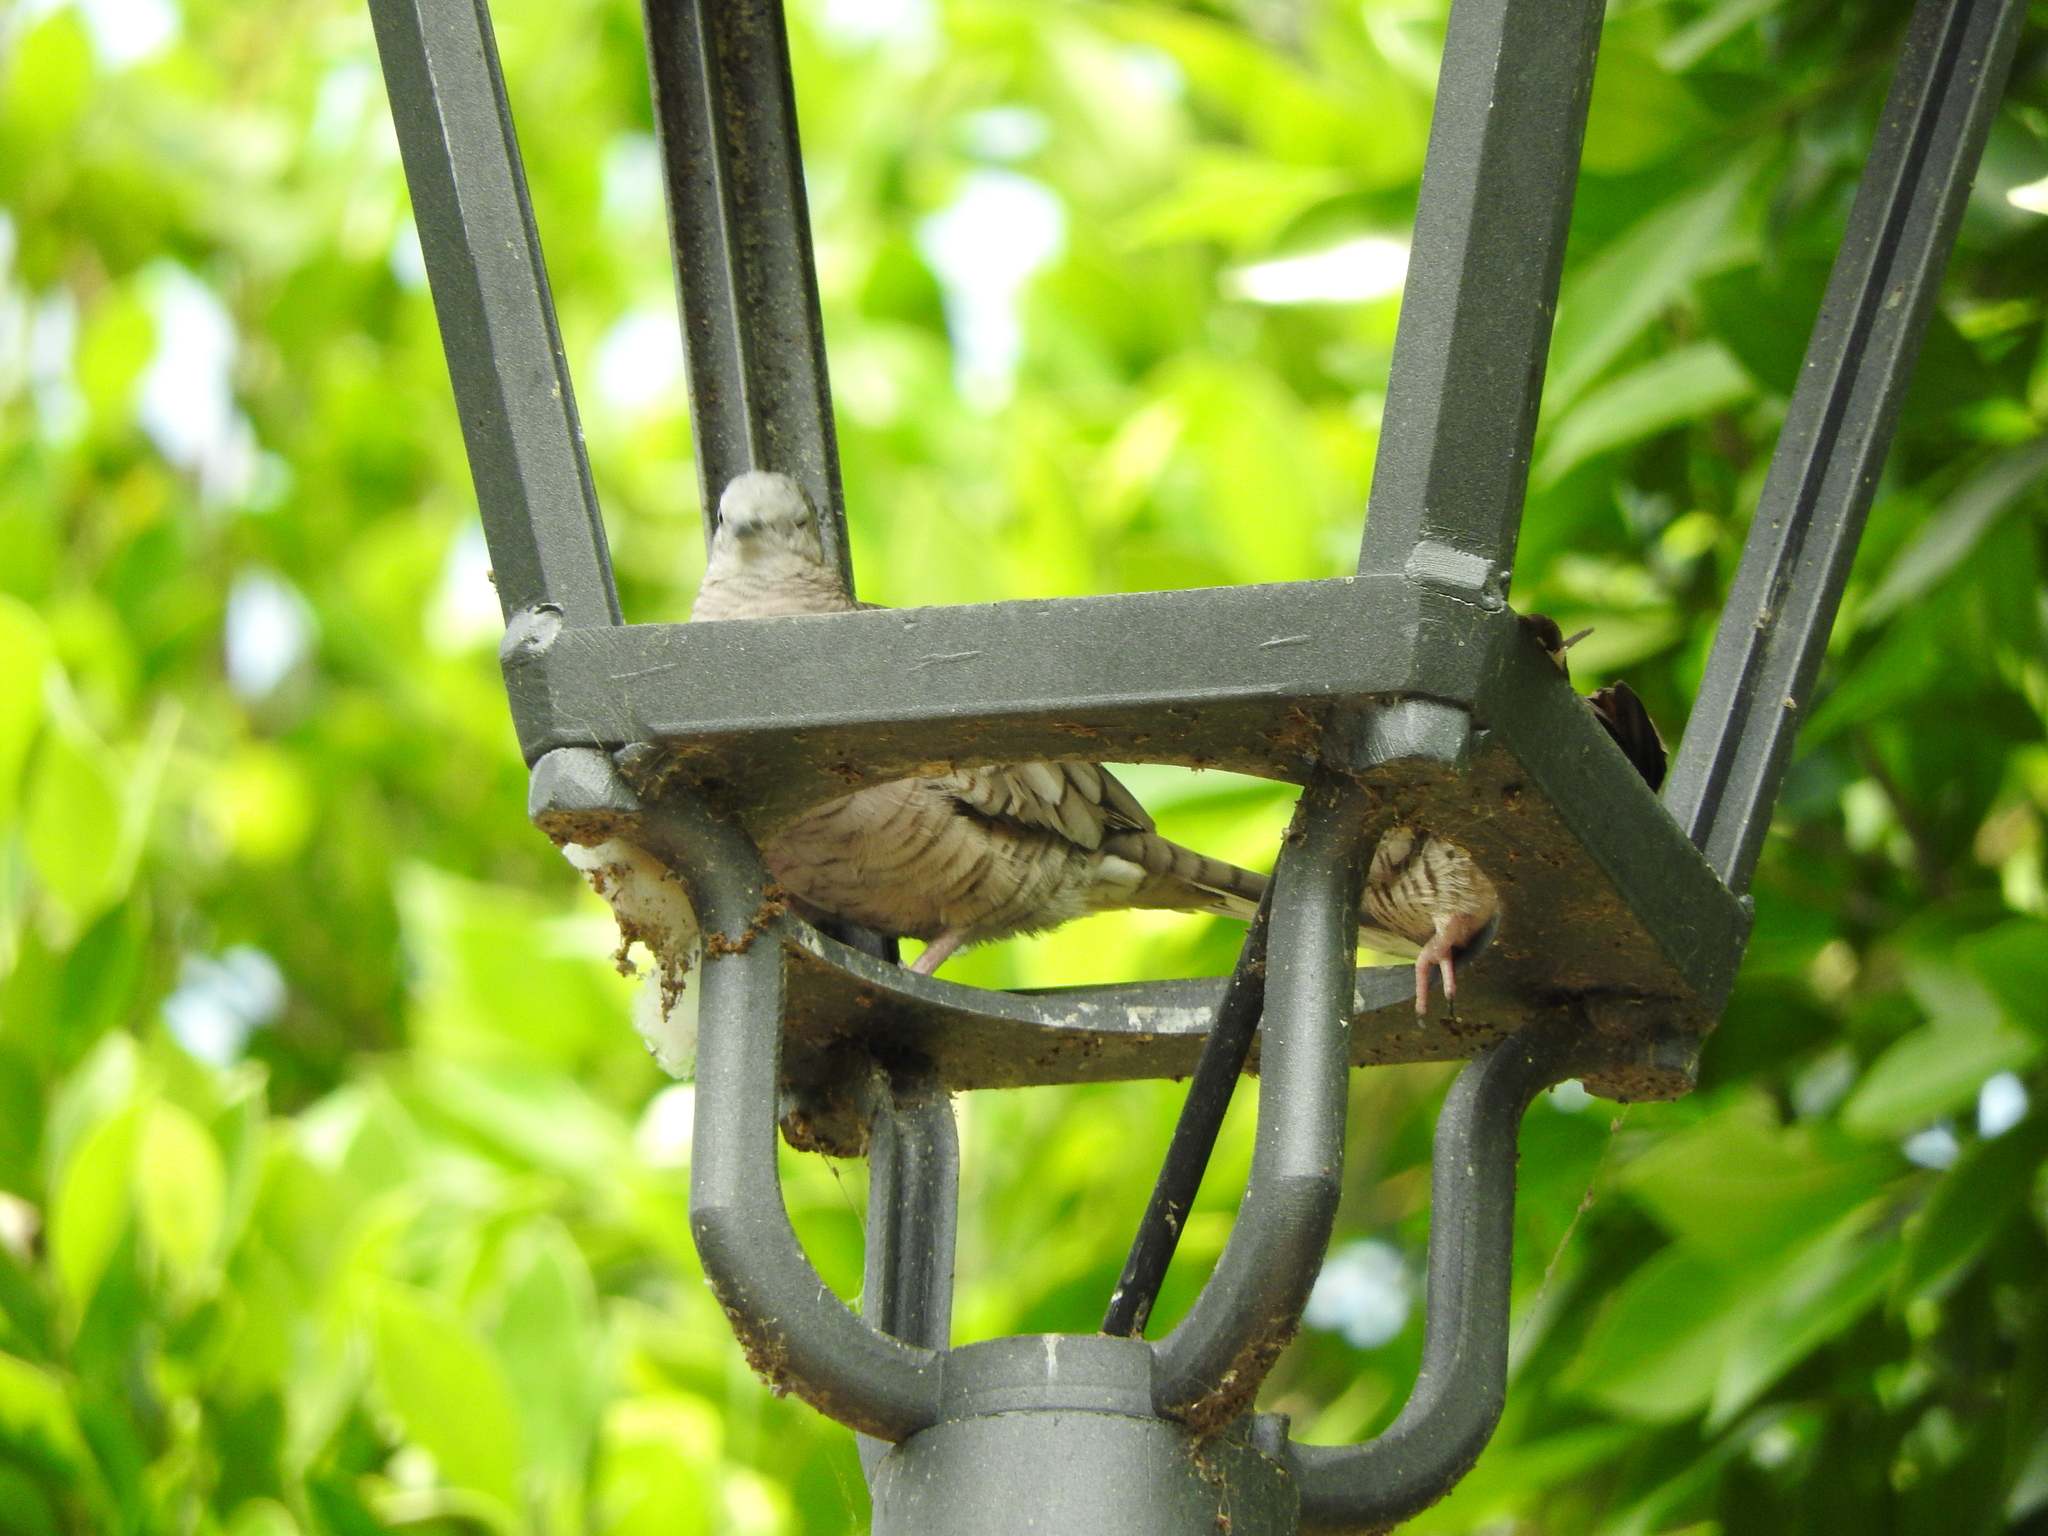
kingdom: Animalia
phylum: Chordata
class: Aves
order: Columbiformes
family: Columbidae
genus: Columbina
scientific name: Columbina inca
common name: Inca dove
